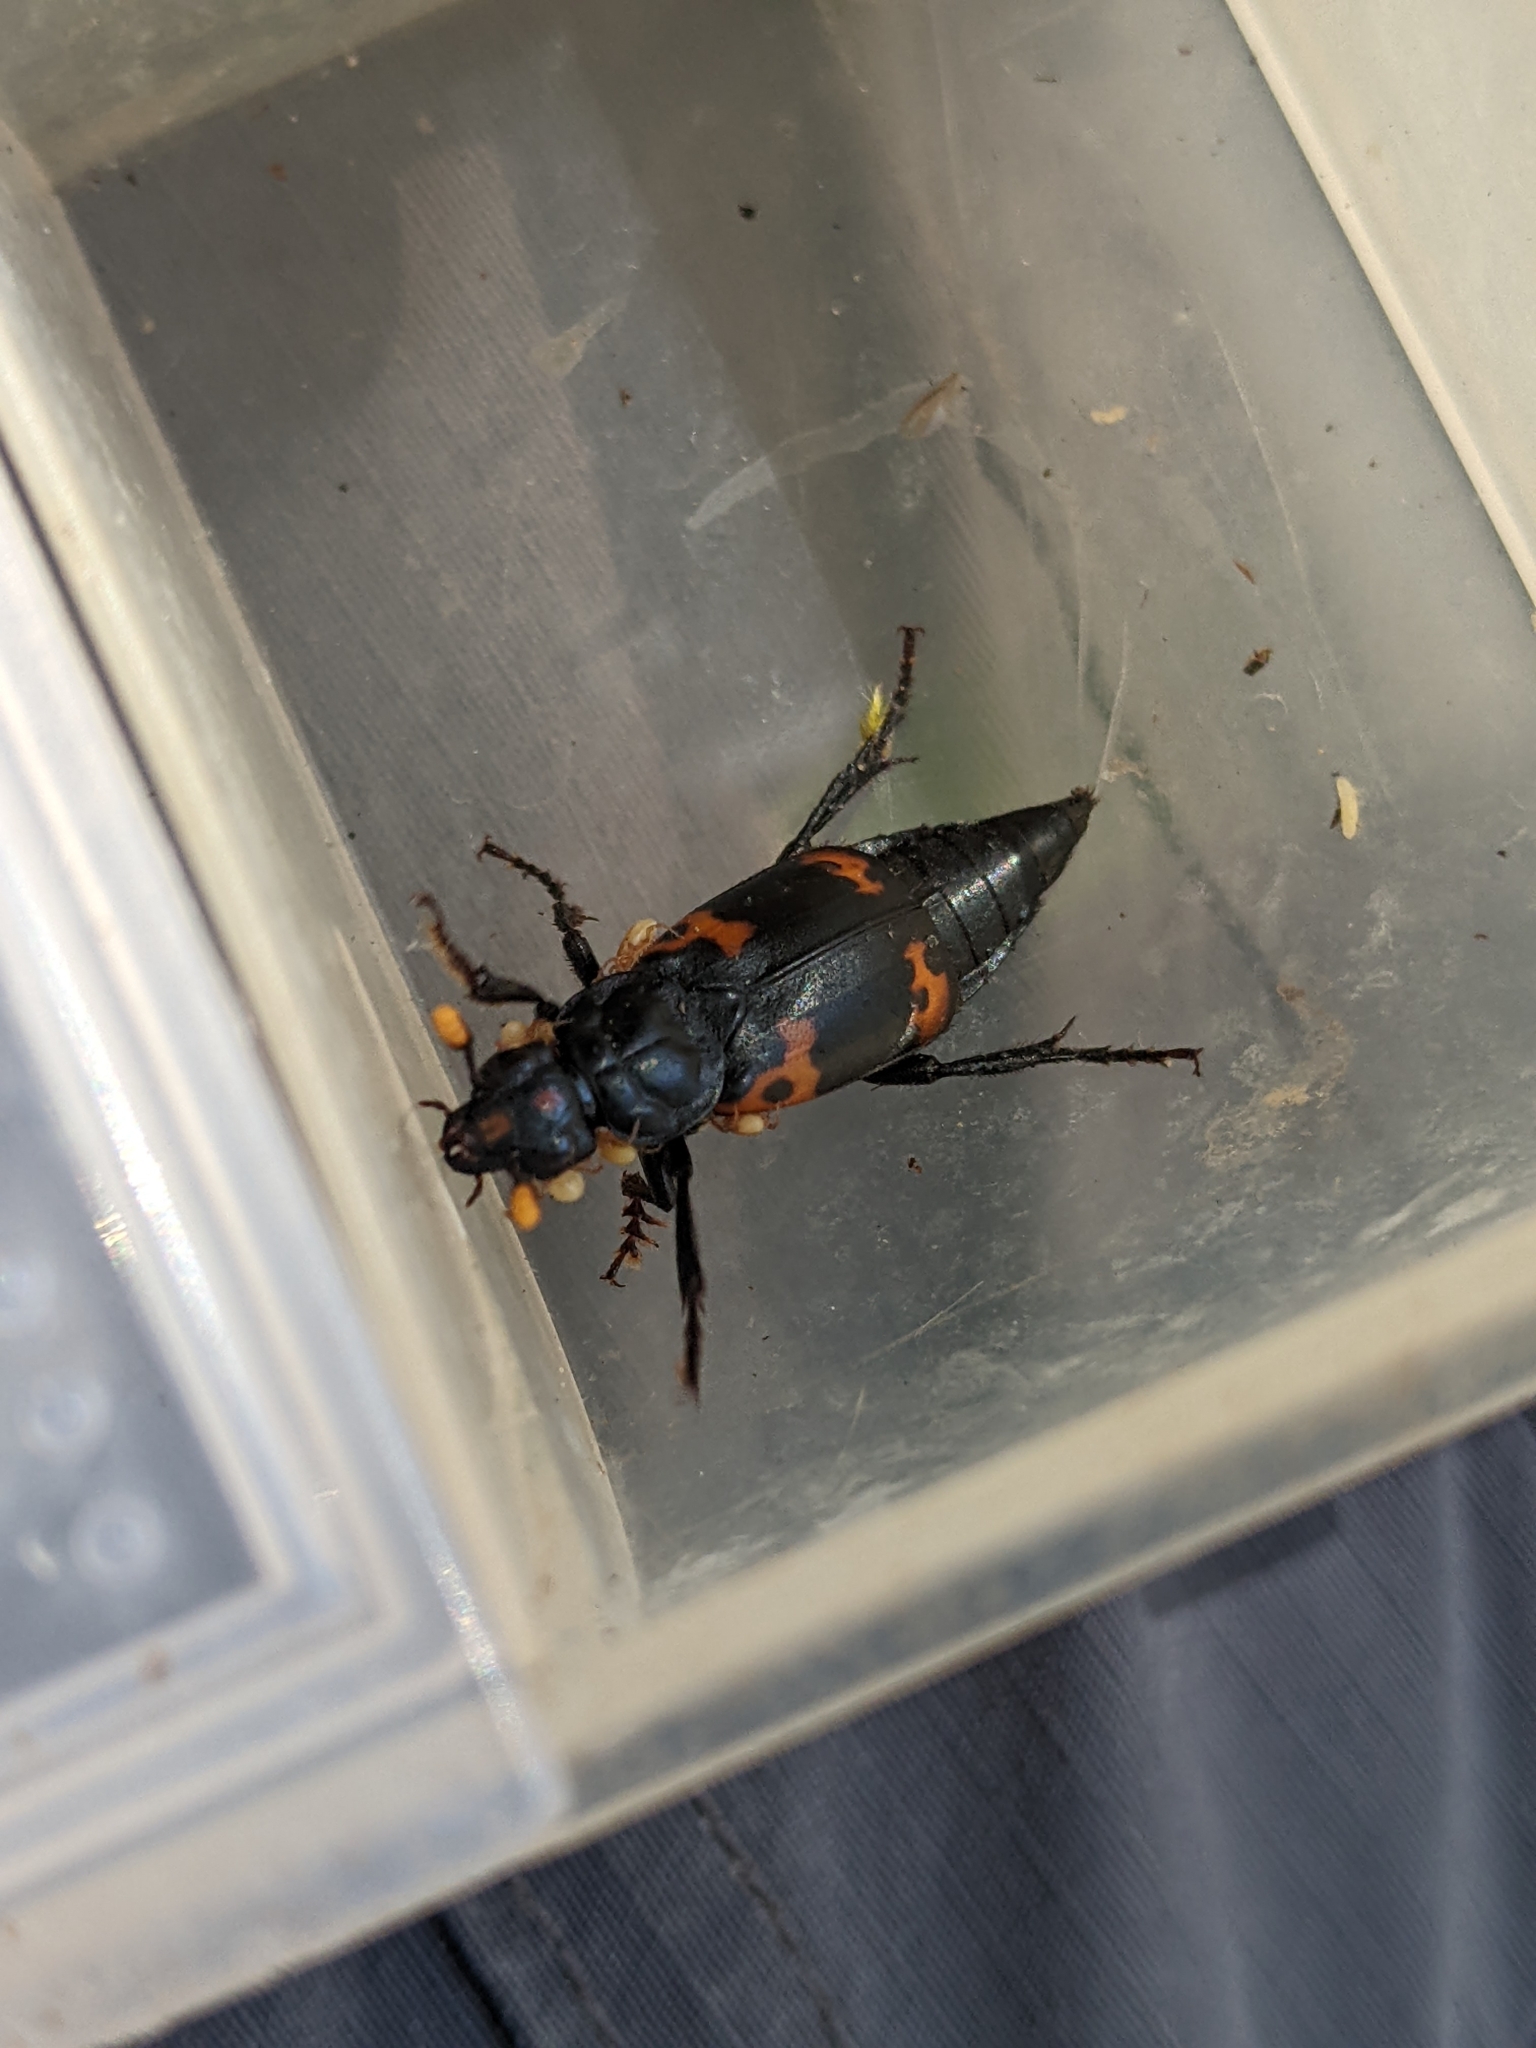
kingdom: Animalia
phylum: Arthropoda
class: Insecta
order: Coleoptera
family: Staphylinidae
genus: Nicrophorus
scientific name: Nicrophorus nepalensis
